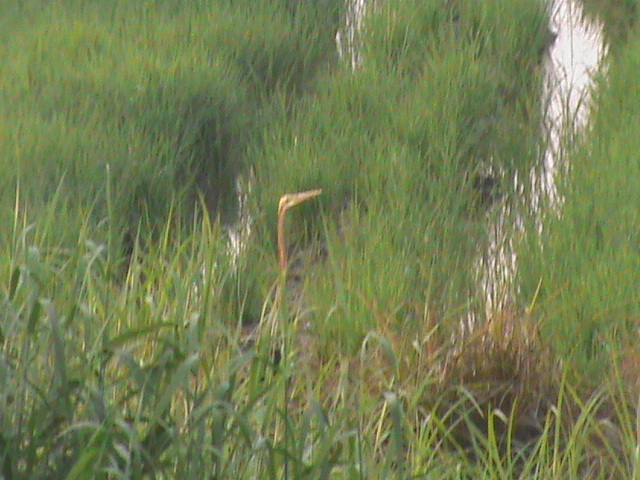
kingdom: Animalia
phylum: Chordata
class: Aves
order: Pelecaniformes
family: Ardeidae
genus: Ardea
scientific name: Ardea purpurea
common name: Purple heron
